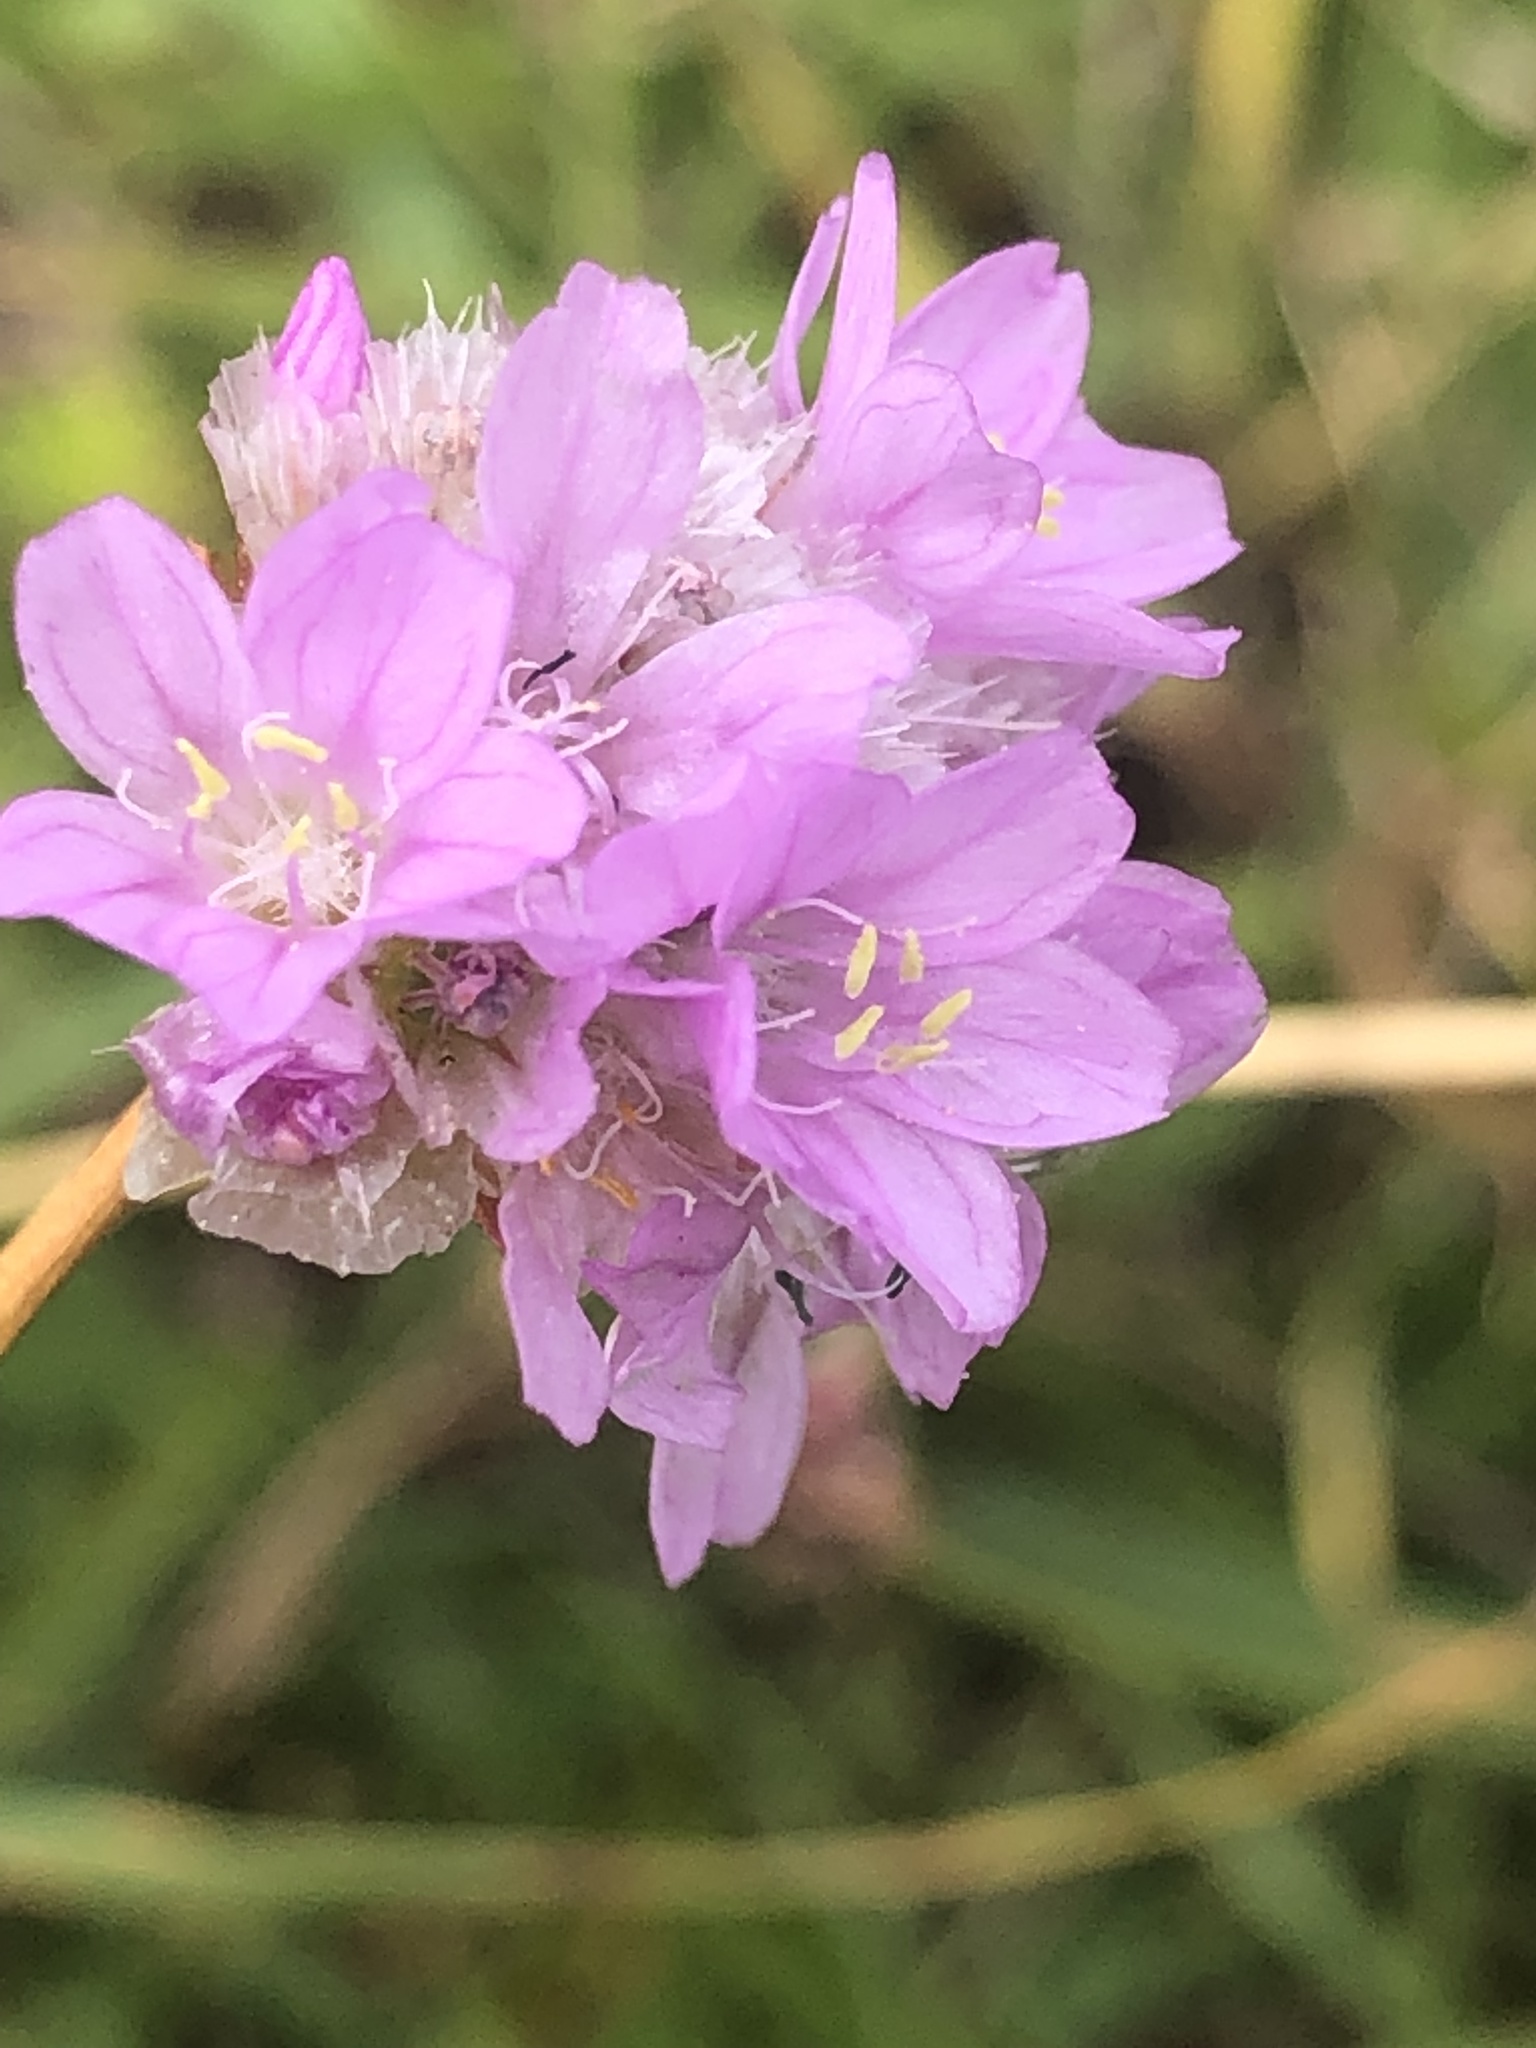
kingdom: Plantae
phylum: Tracheophyta
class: Magnoliopsida
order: Caryophyllales
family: Plumbaginaceae
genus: Armeria
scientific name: Armeria maritima
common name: Thrift
